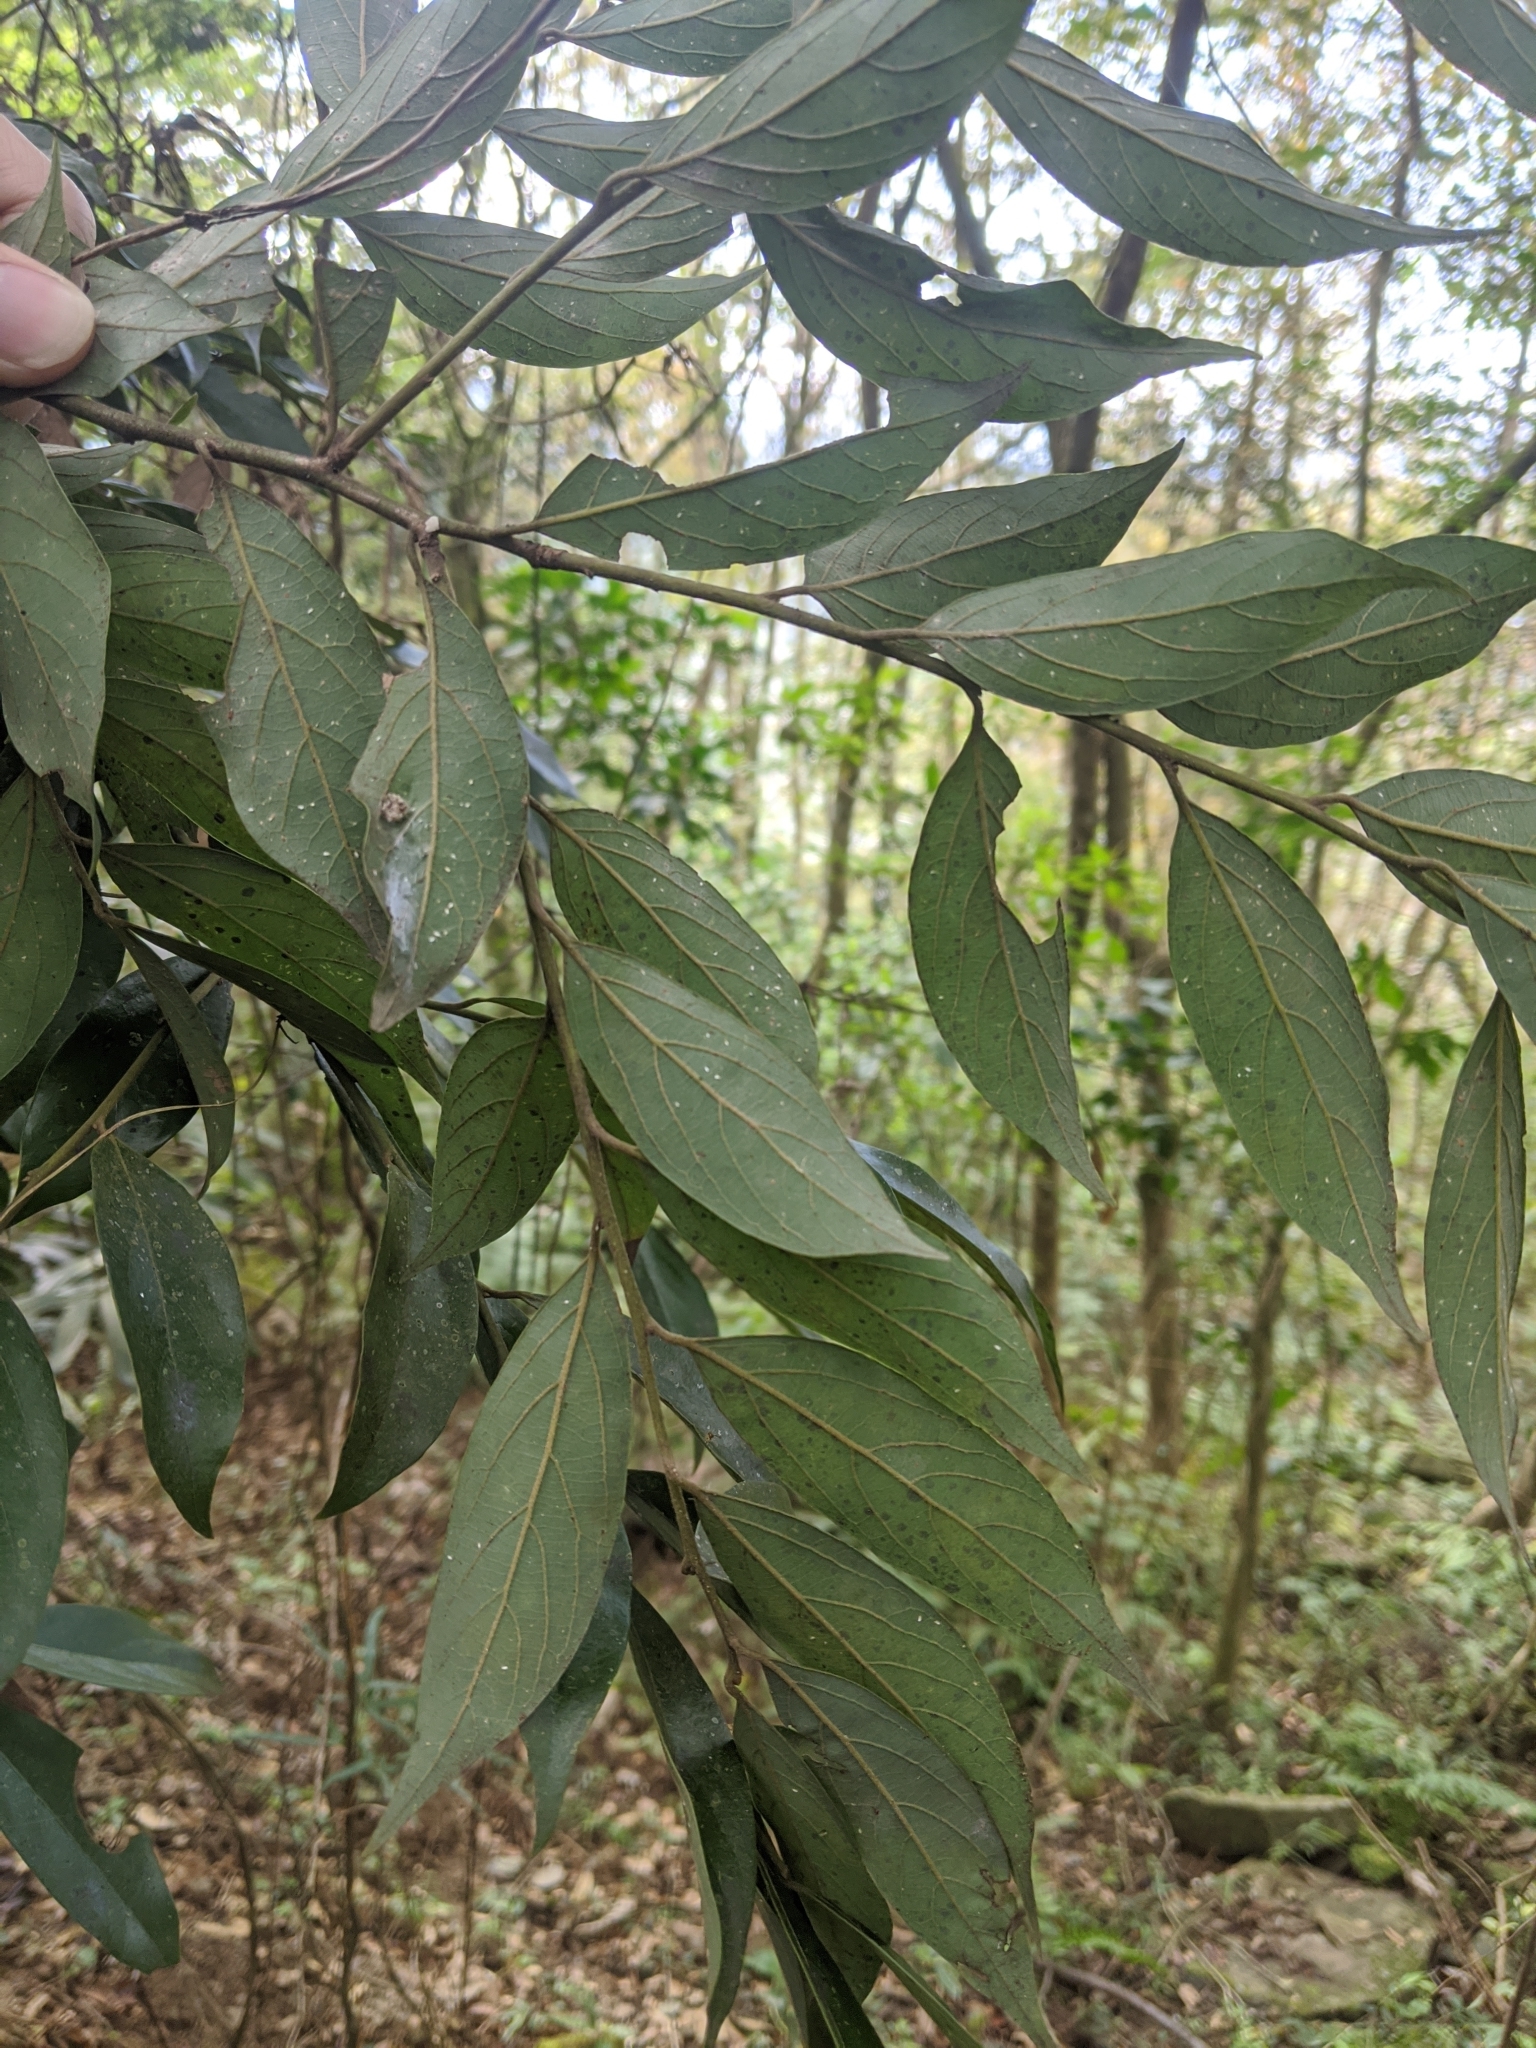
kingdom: Plantae
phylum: Tracheophyta
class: Magnoliopsida
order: Laurales
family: Lauraceae
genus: Lindera
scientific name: Lindera communis
